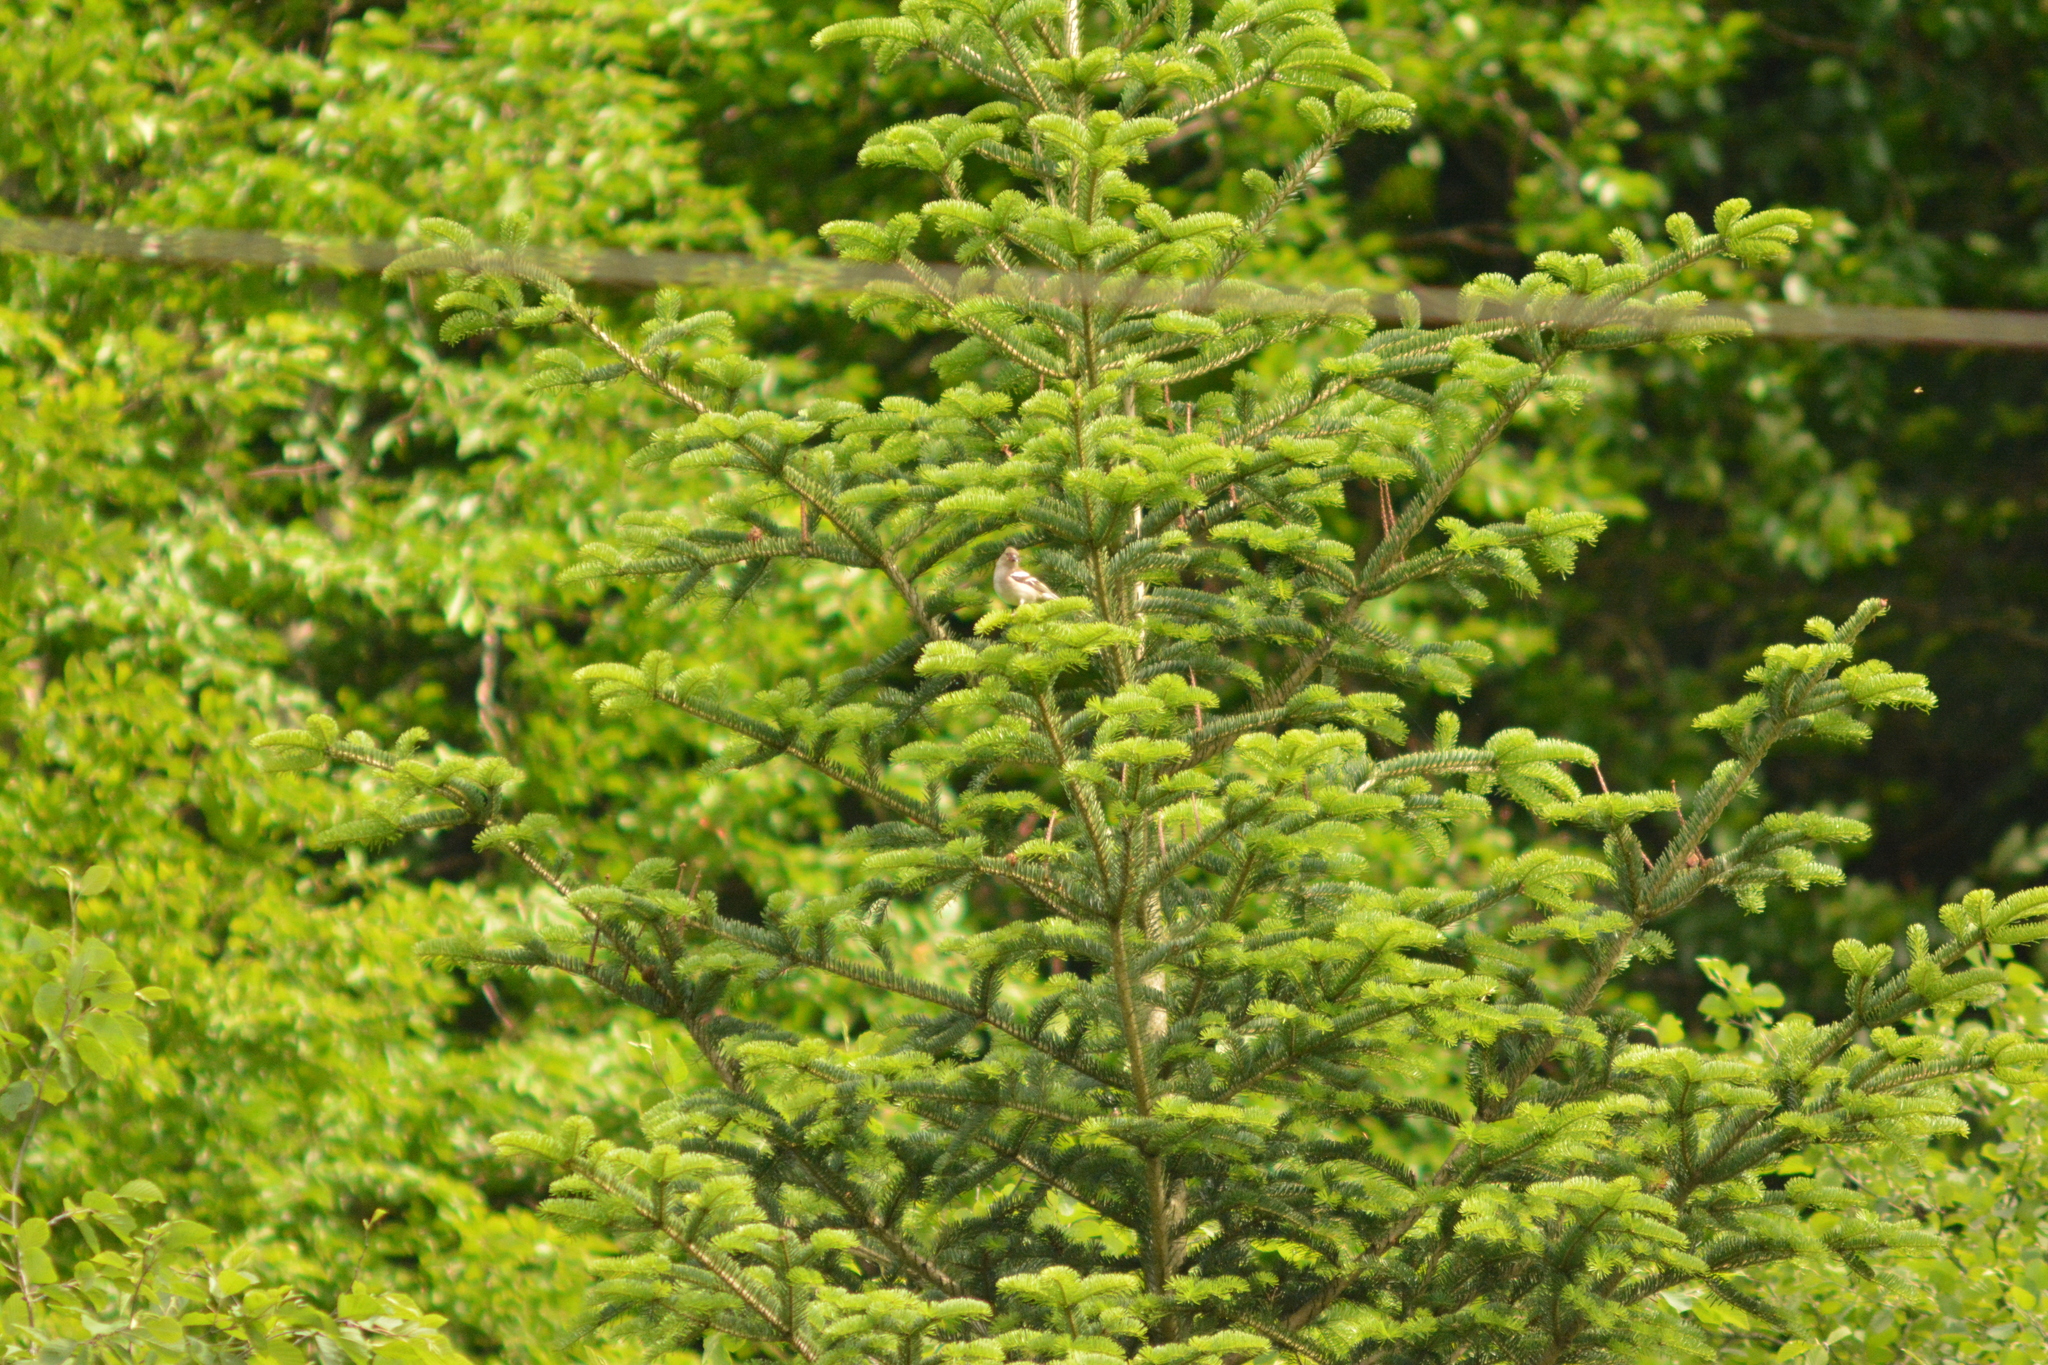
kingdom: Animalia
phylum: Chordata
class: Aves
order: Passeriformes
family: Fringillidae
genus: Fringilla
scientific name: Fringilla coelebs
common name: Common chaffinch
